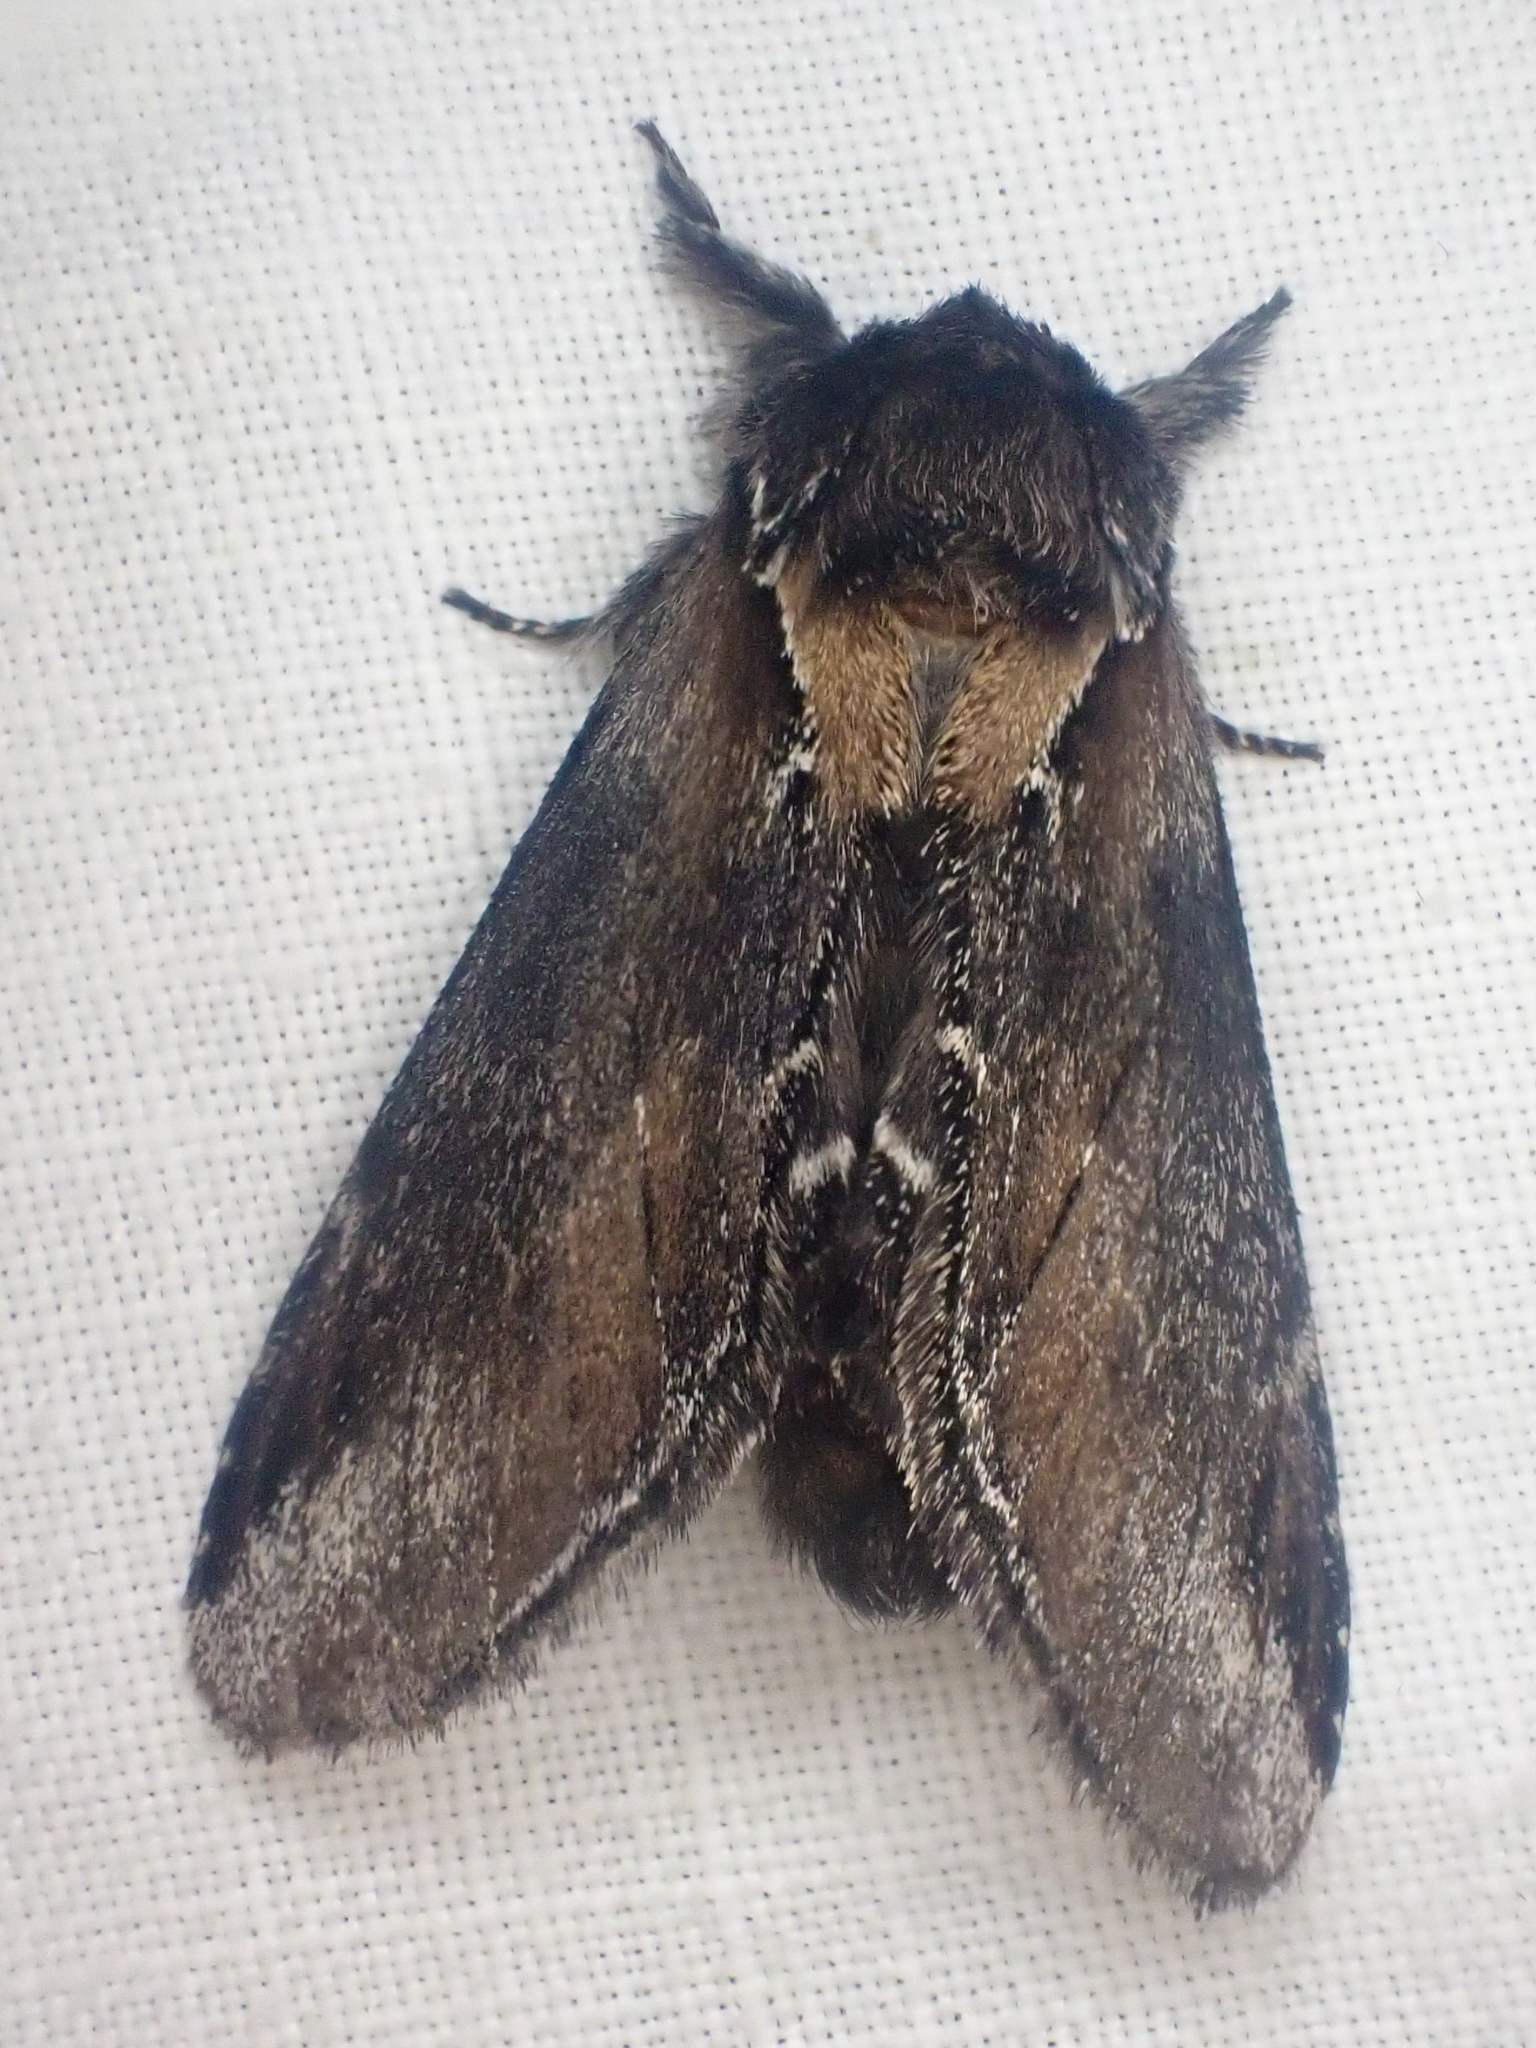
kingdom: Animalia
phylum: Arthropoda
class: Insecta
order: Lepidoptera
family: Notodontidae
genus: Pheosia
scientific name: Pheosia rimosa
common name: Black-rimmed prominent
